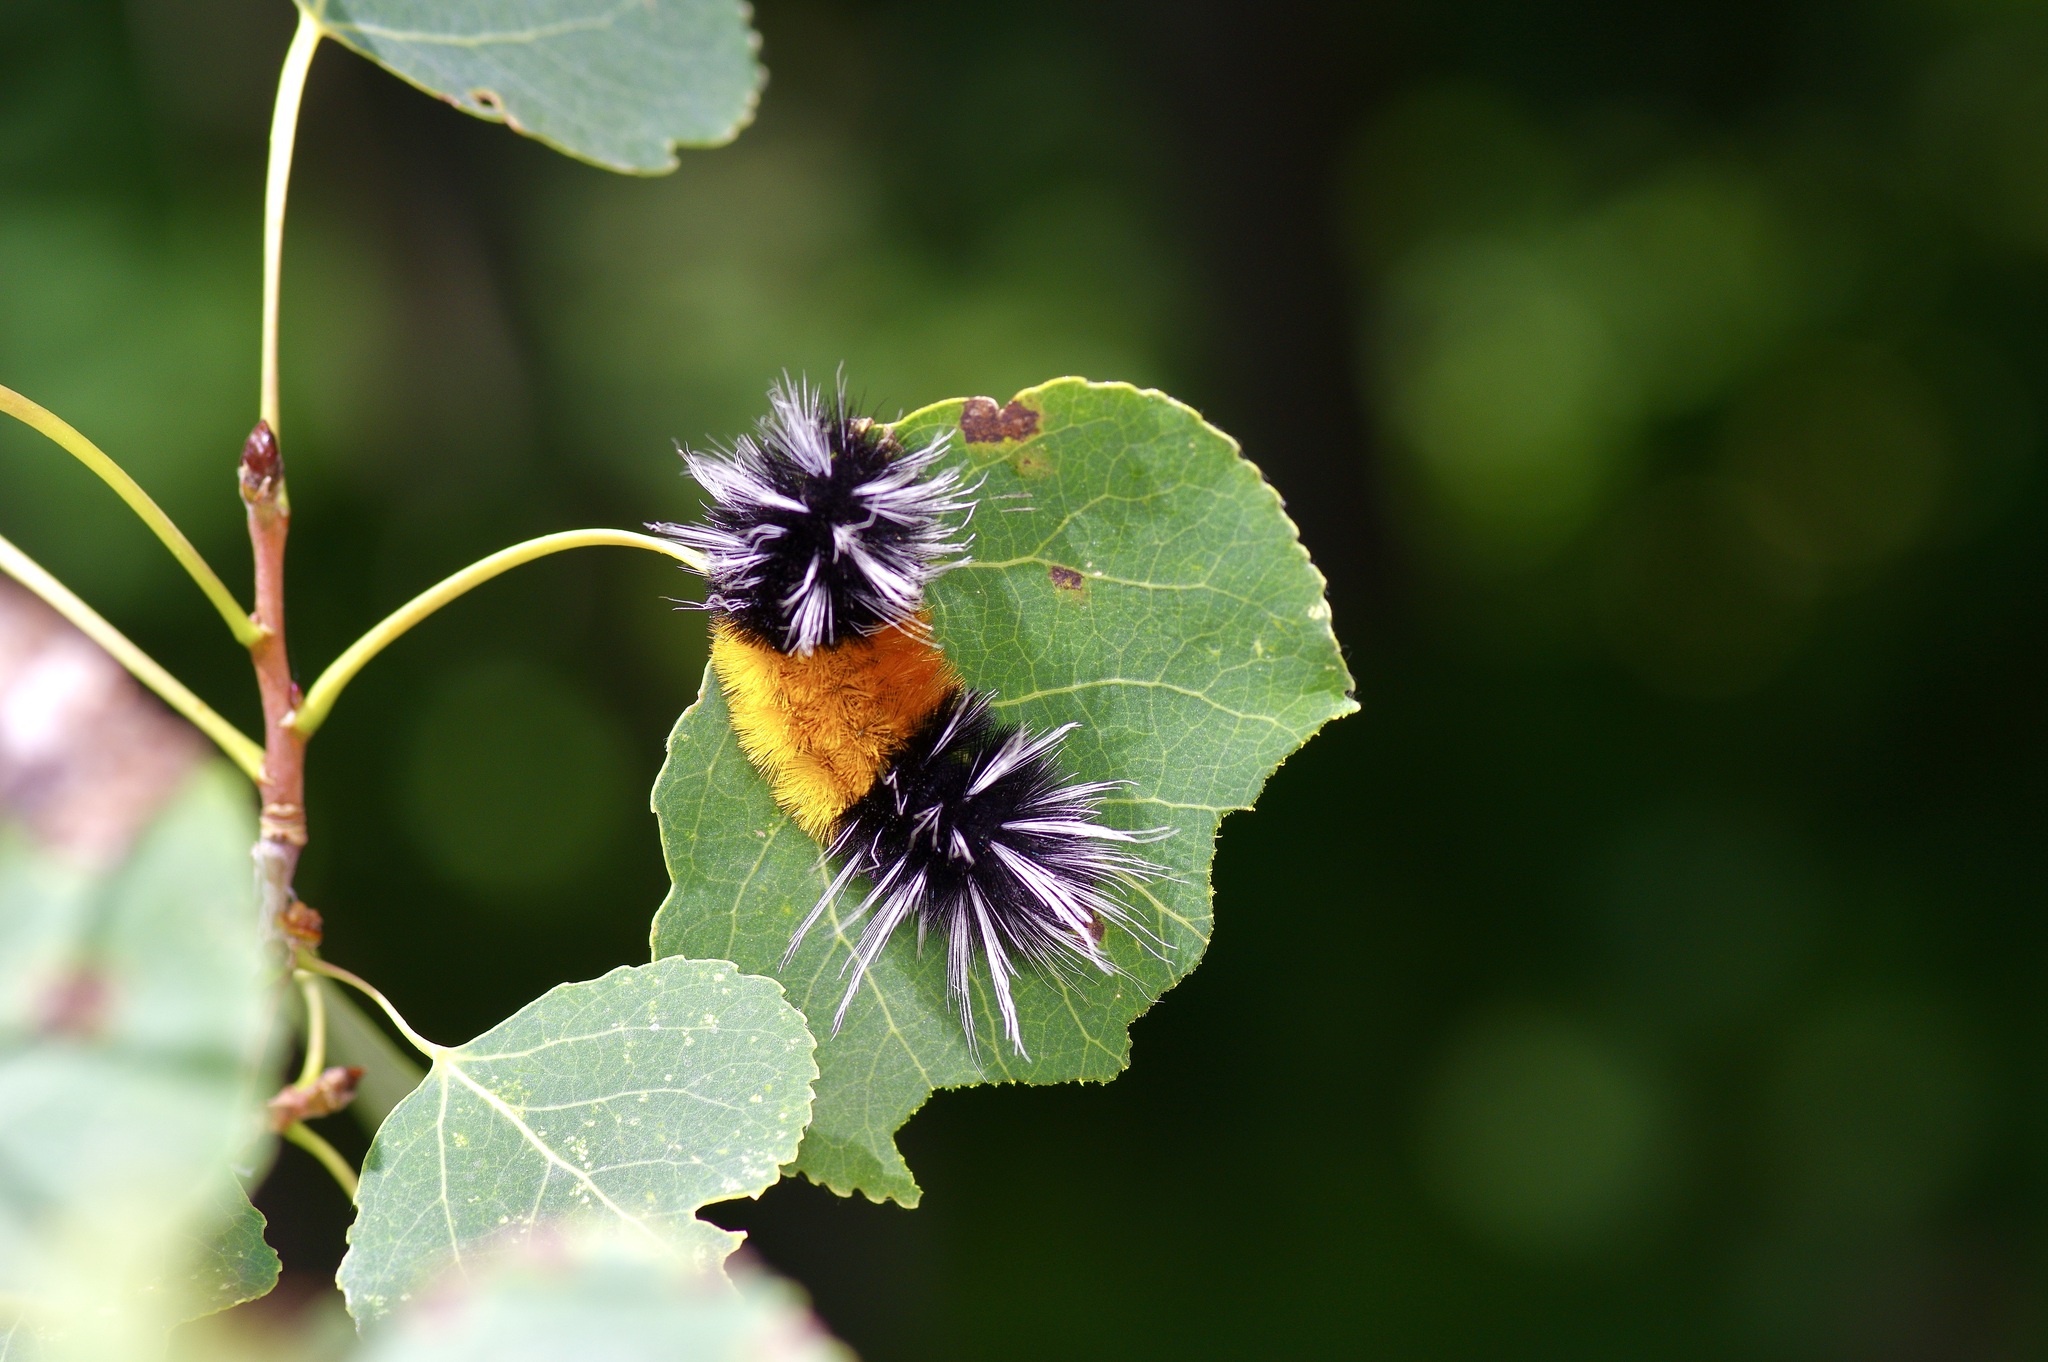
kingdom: Animalia
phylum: Arthropoda
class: Insecta
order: Lepidoptera
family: Erebidae
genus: Lophocampa
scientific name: Lophocampa maculata
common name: Spotted tussock moth
